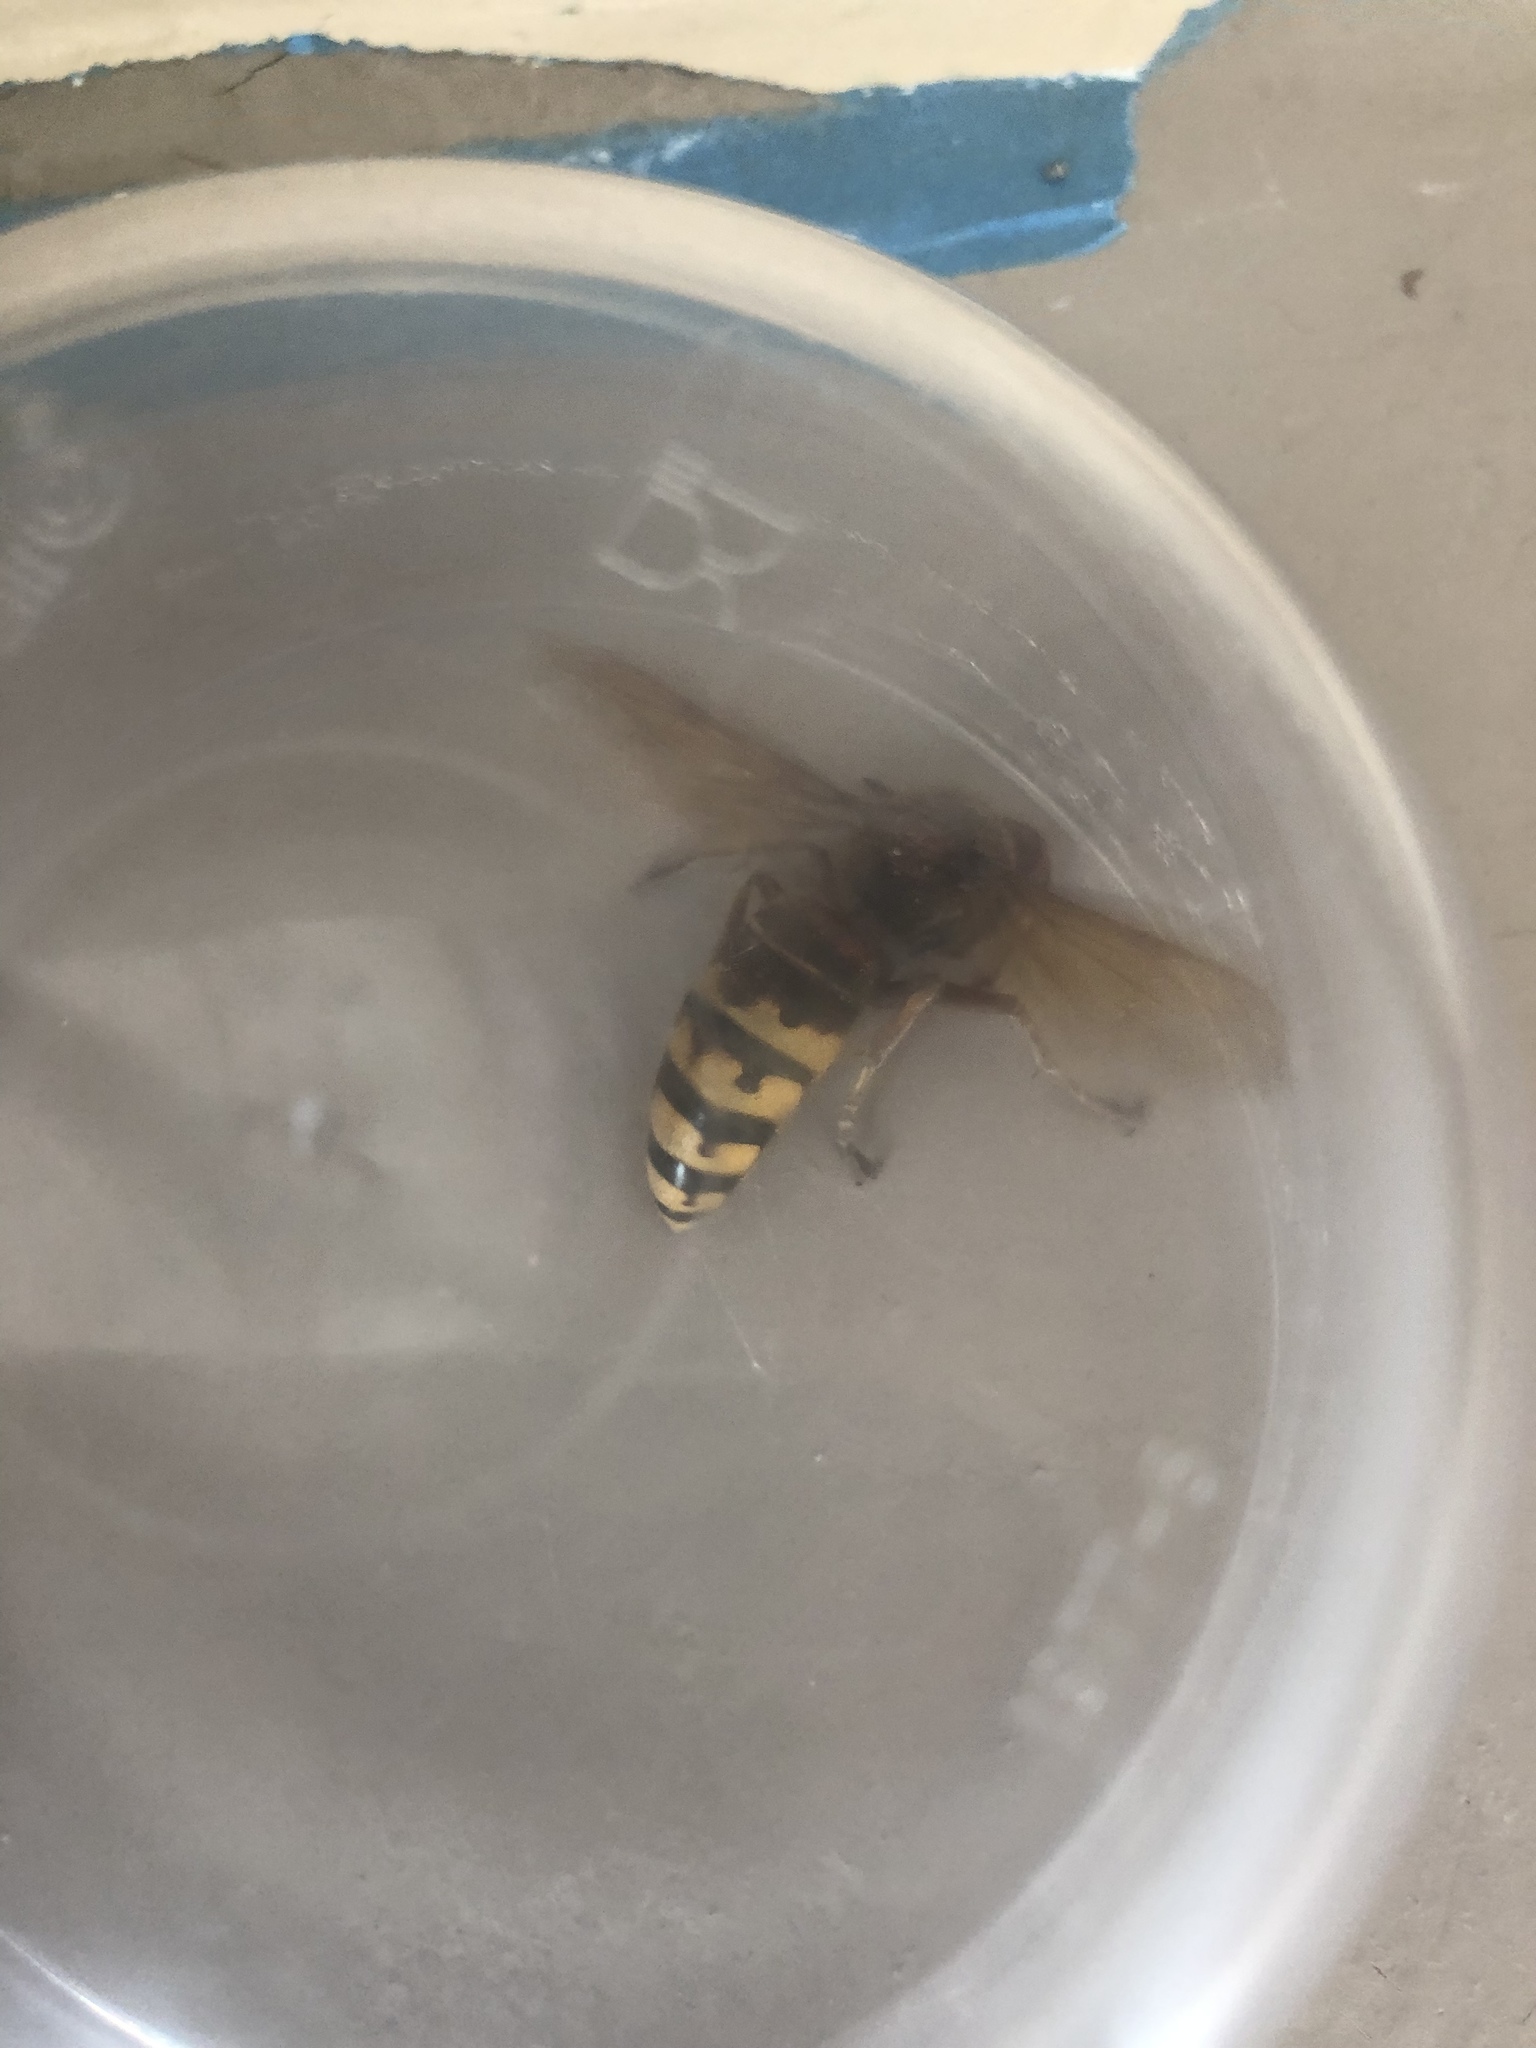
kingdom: Animalia
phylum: Arthropoda
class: Insecta
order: Hymenoptera
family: Vespidae
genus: Vespa
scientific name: Vespa crabro
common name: Hornet
